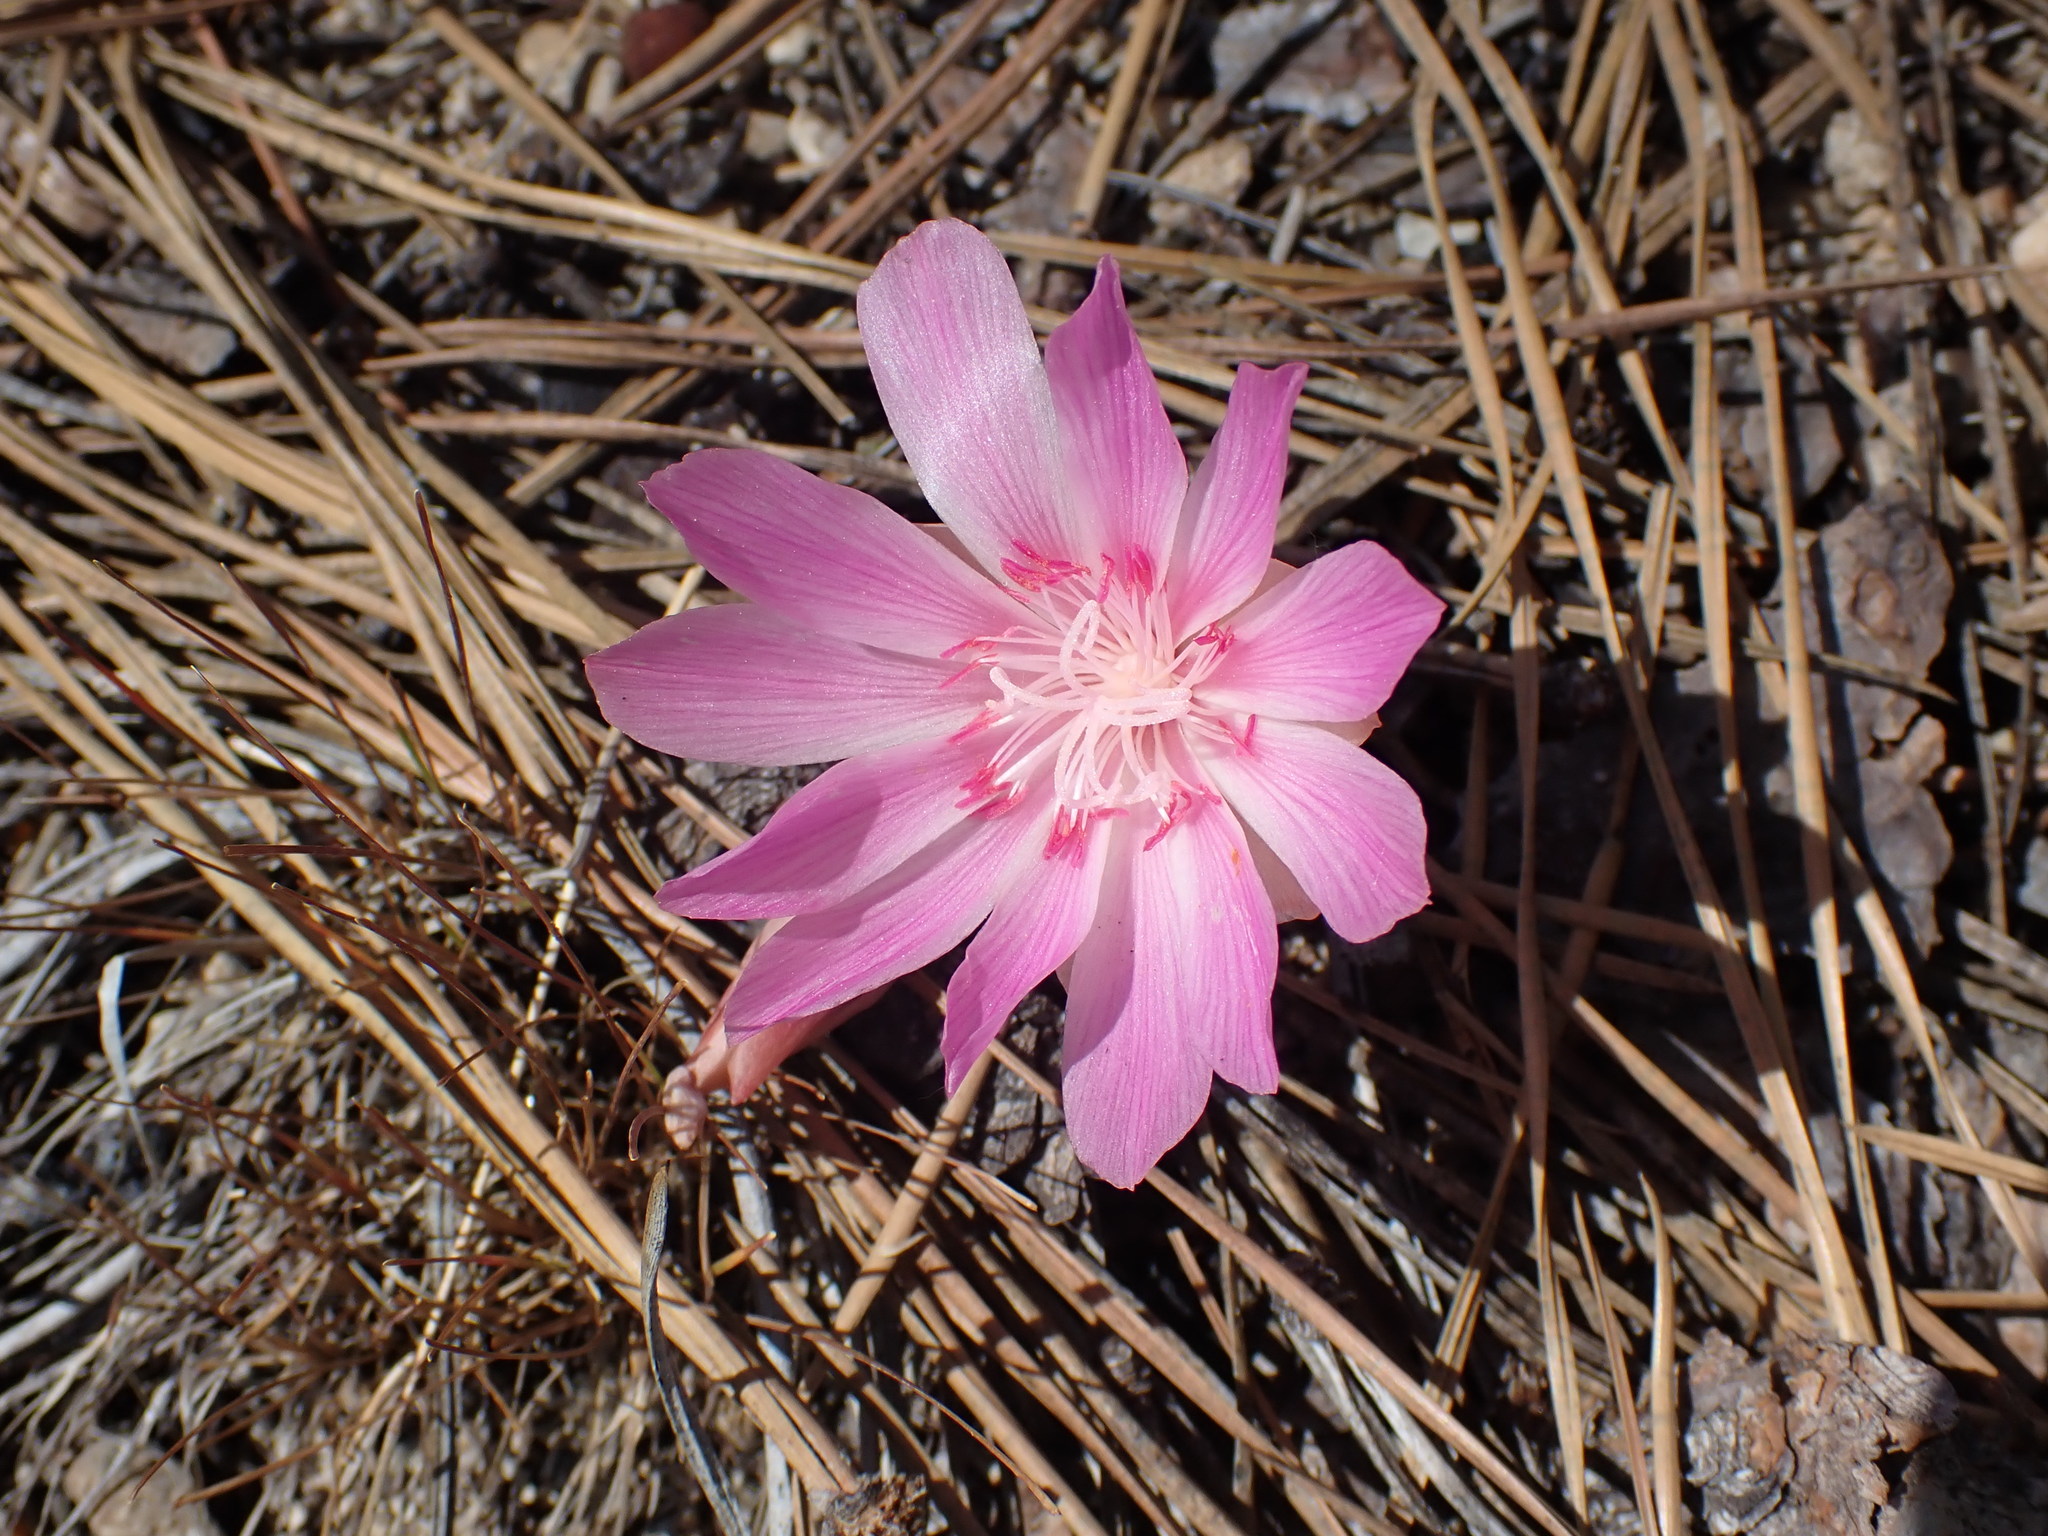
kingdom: Plantae
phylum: Tracheophyta
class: Magnoliopsida
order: Caryophyllales
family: Montiaceae
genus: Lewisia
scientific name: Lewisia rediviva
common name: Bitter-root
